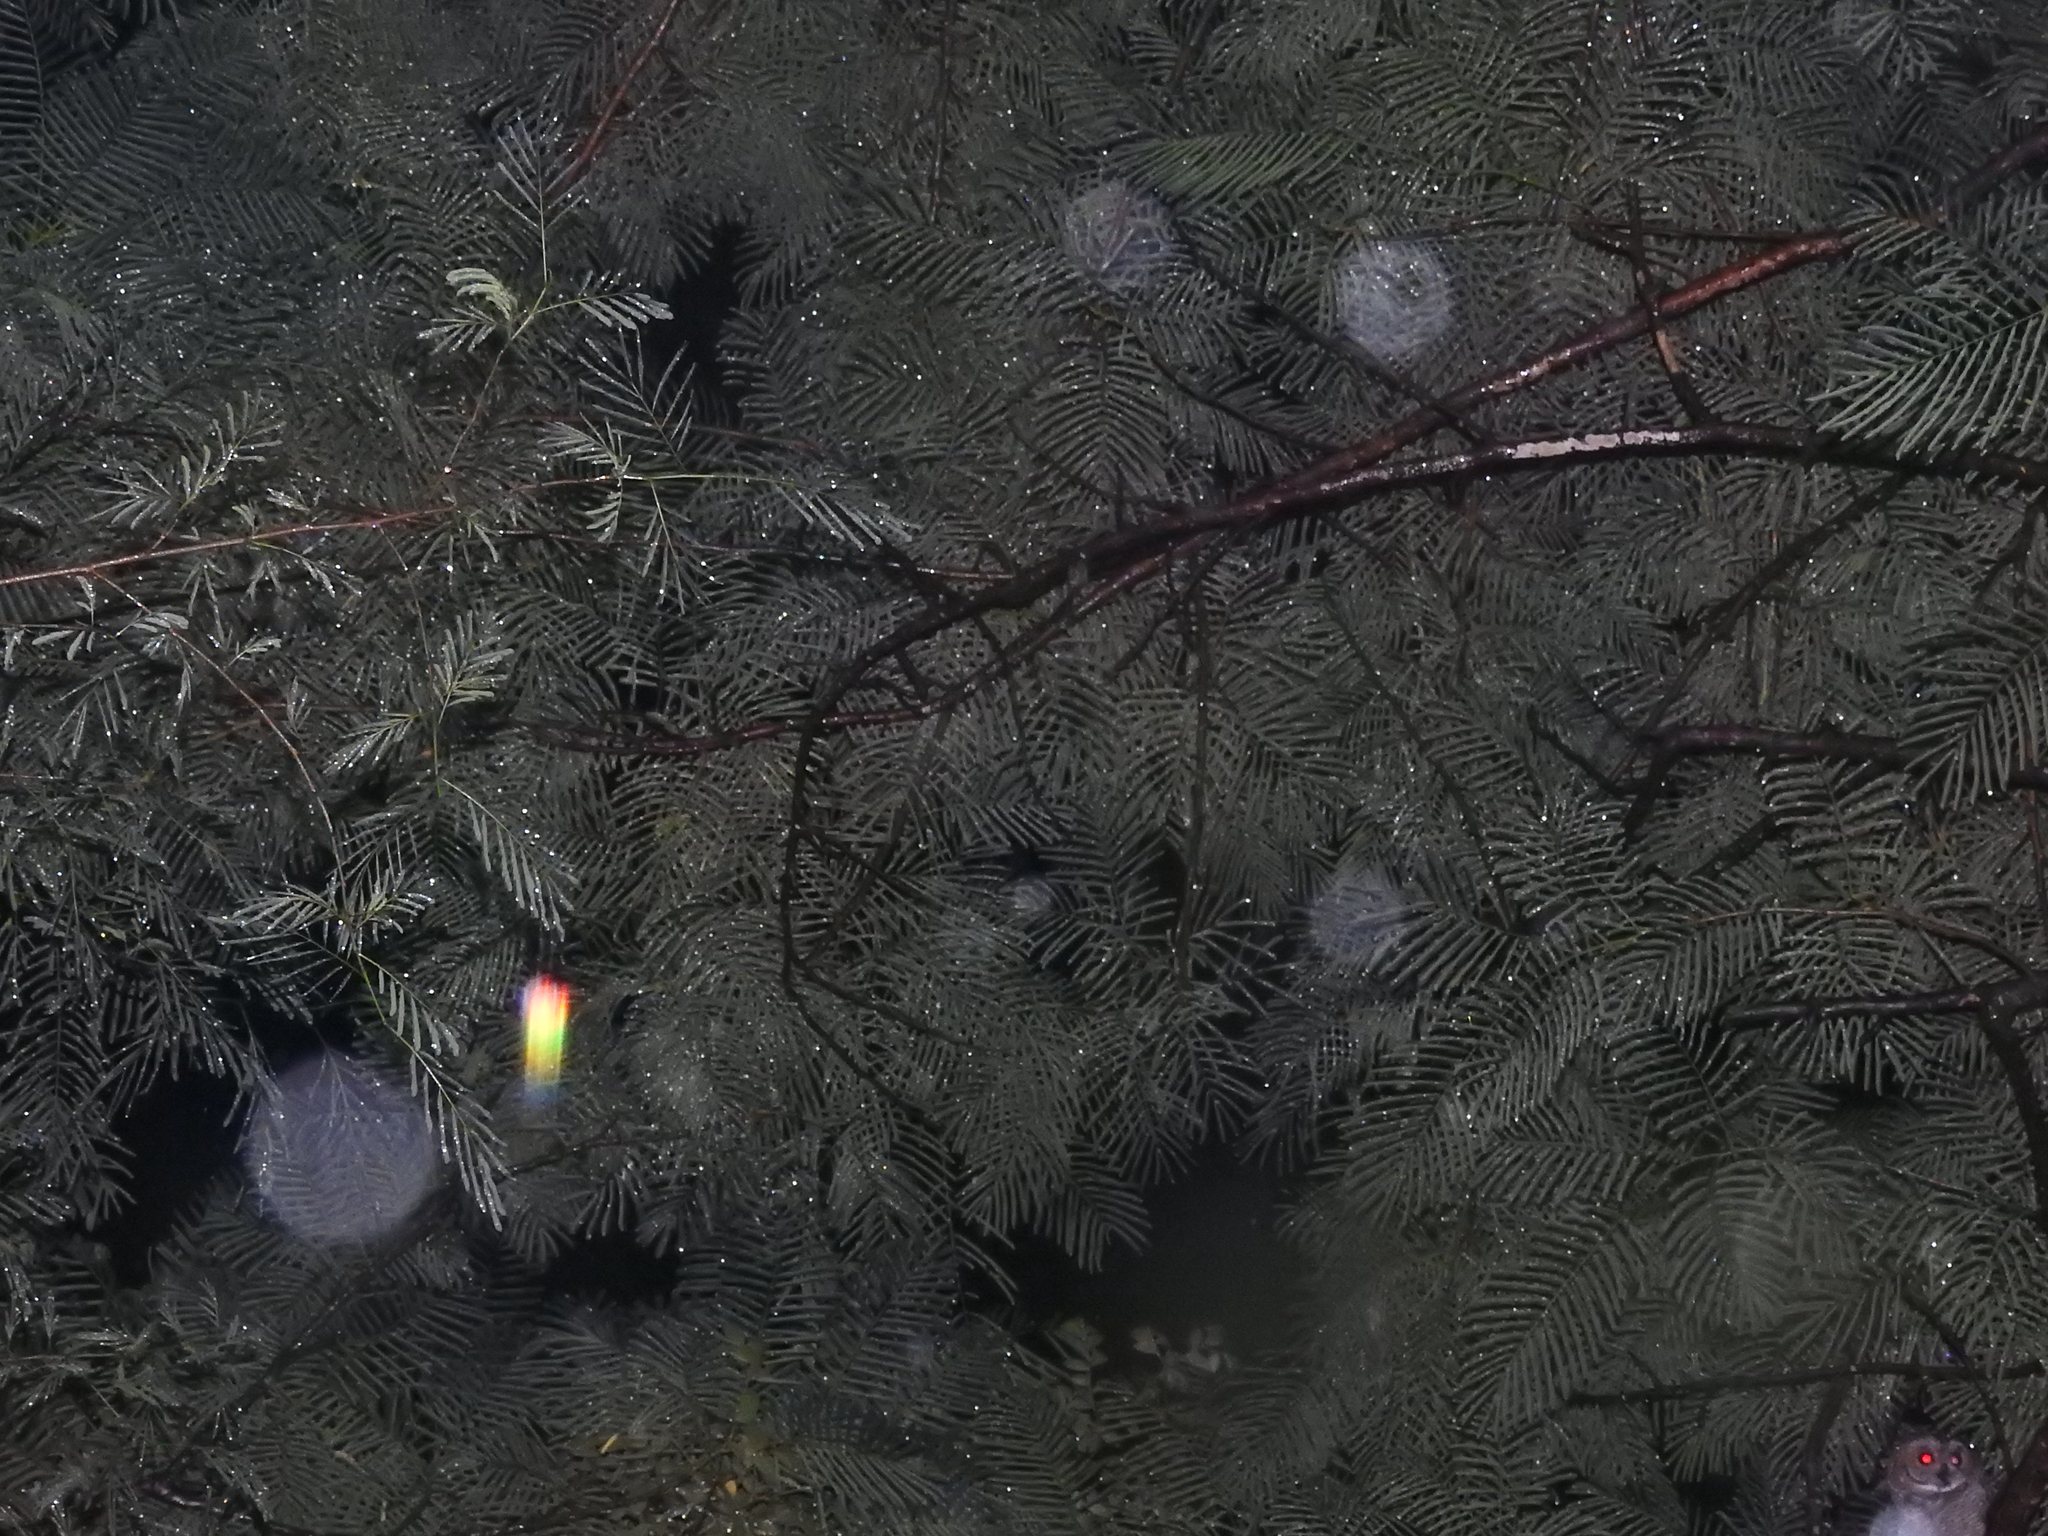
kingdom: Animalia
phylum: Chordata
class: Aves
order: Strigiformes
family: Strigidae
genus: Strix
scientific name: Strix ocellata
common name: Mottled wood owl
